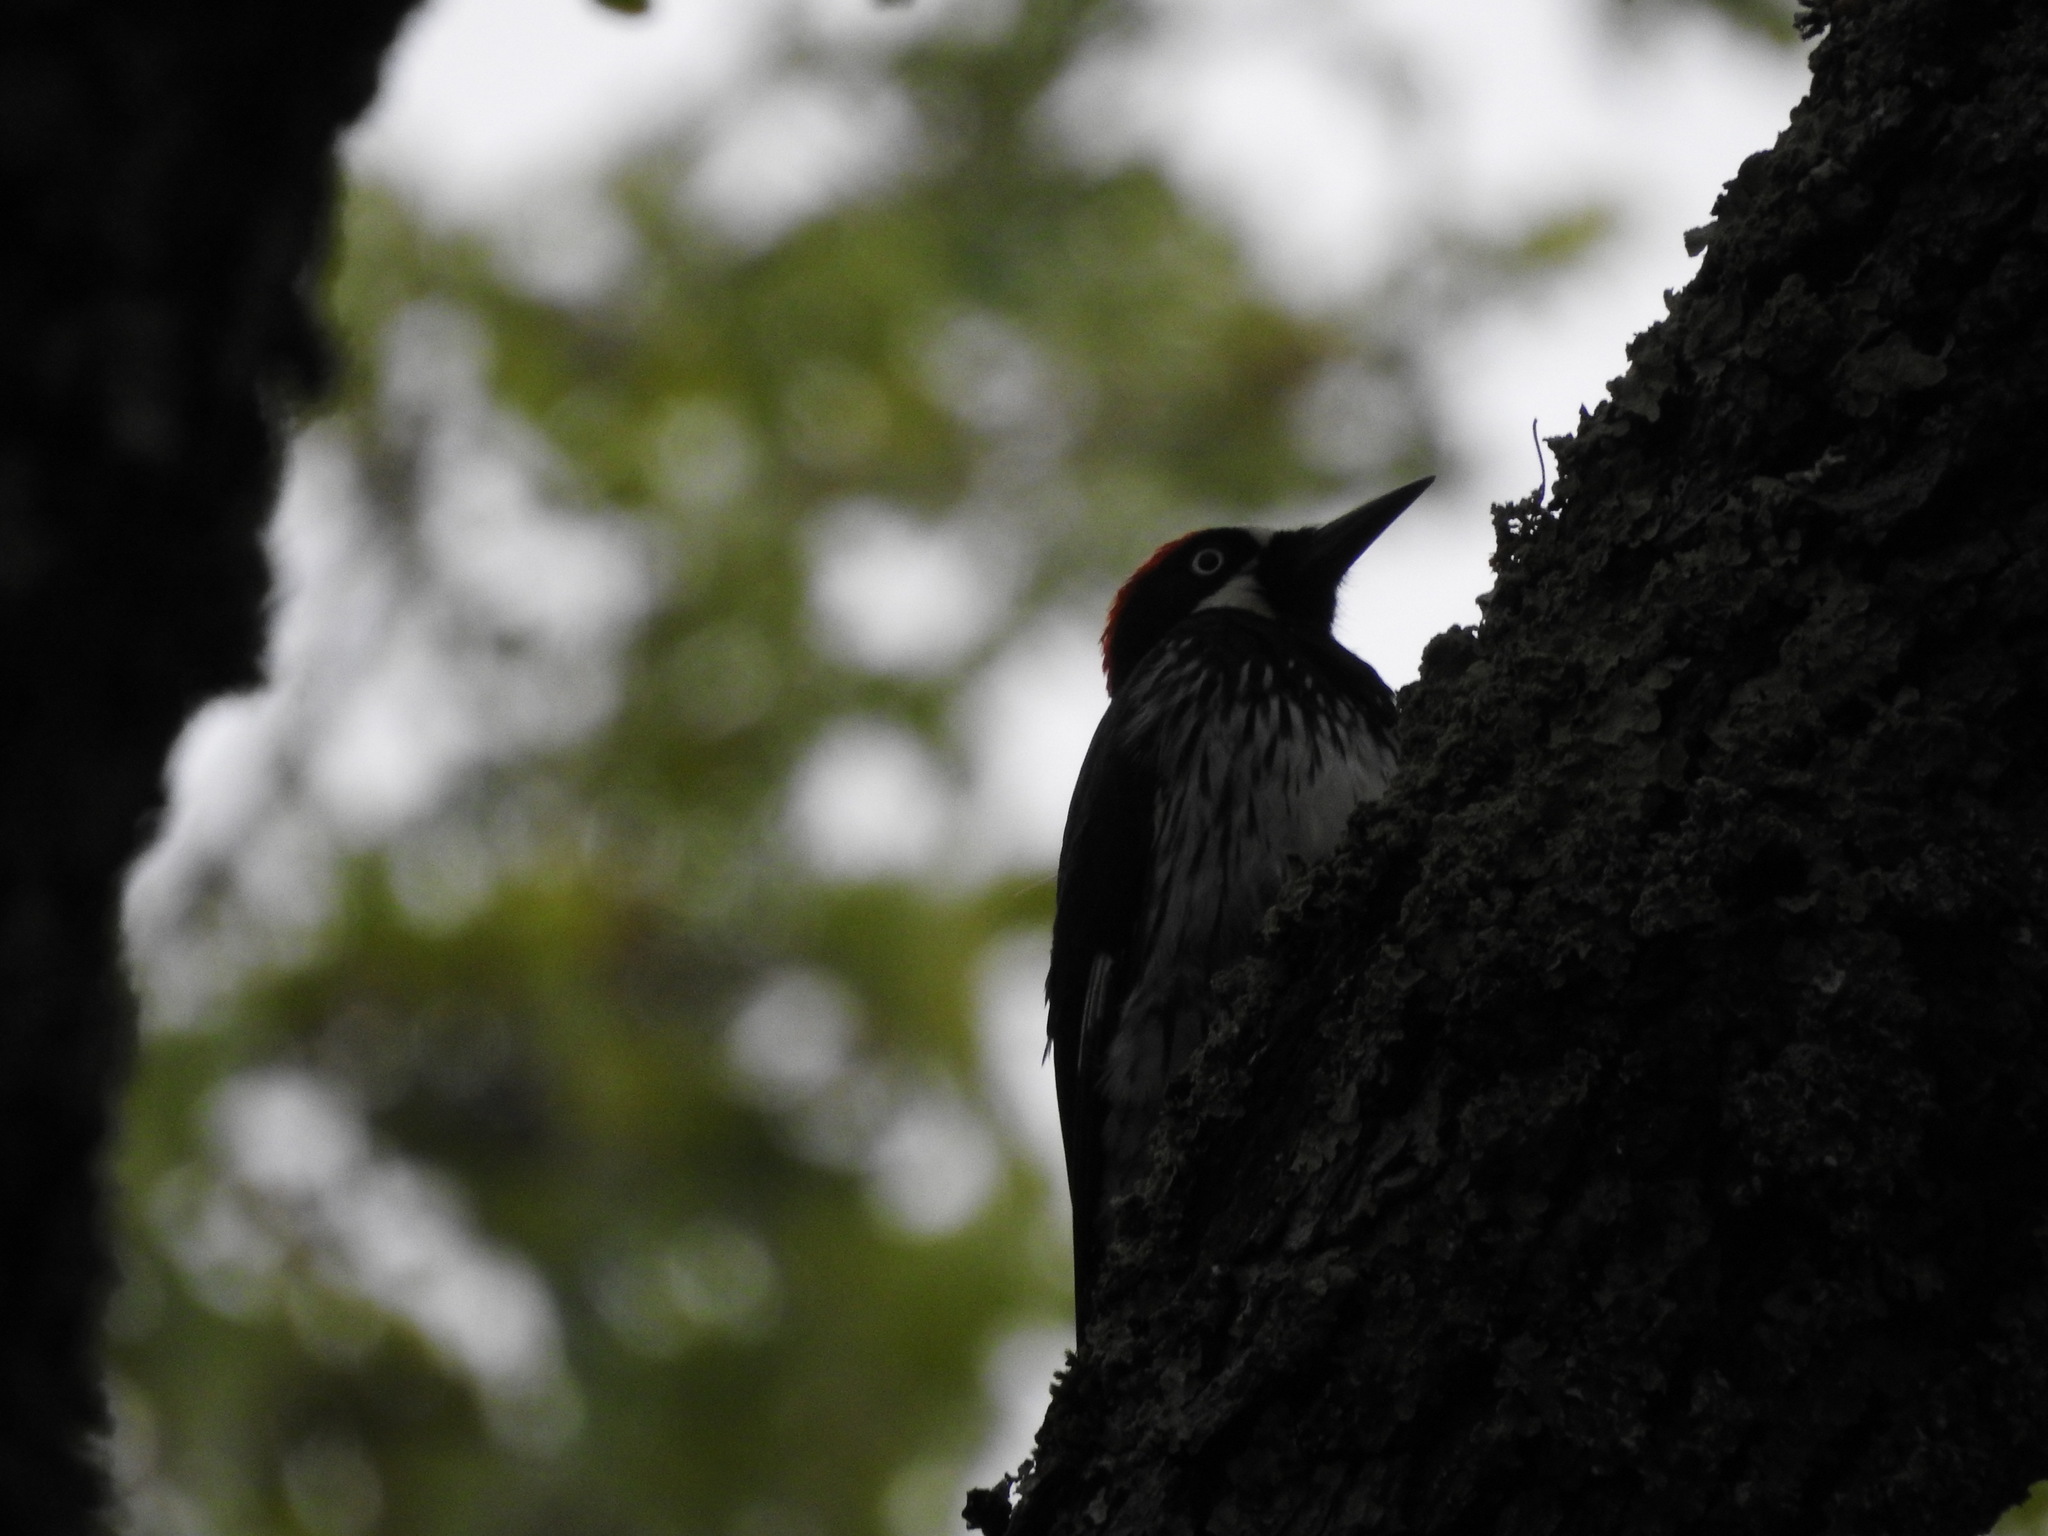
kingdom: Animalia
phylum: Chordata
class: Aves
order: Piciformes
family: Picidae
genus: Melanerpes
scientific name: Melanerpes formicivorus
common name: Acorn woodpecker
